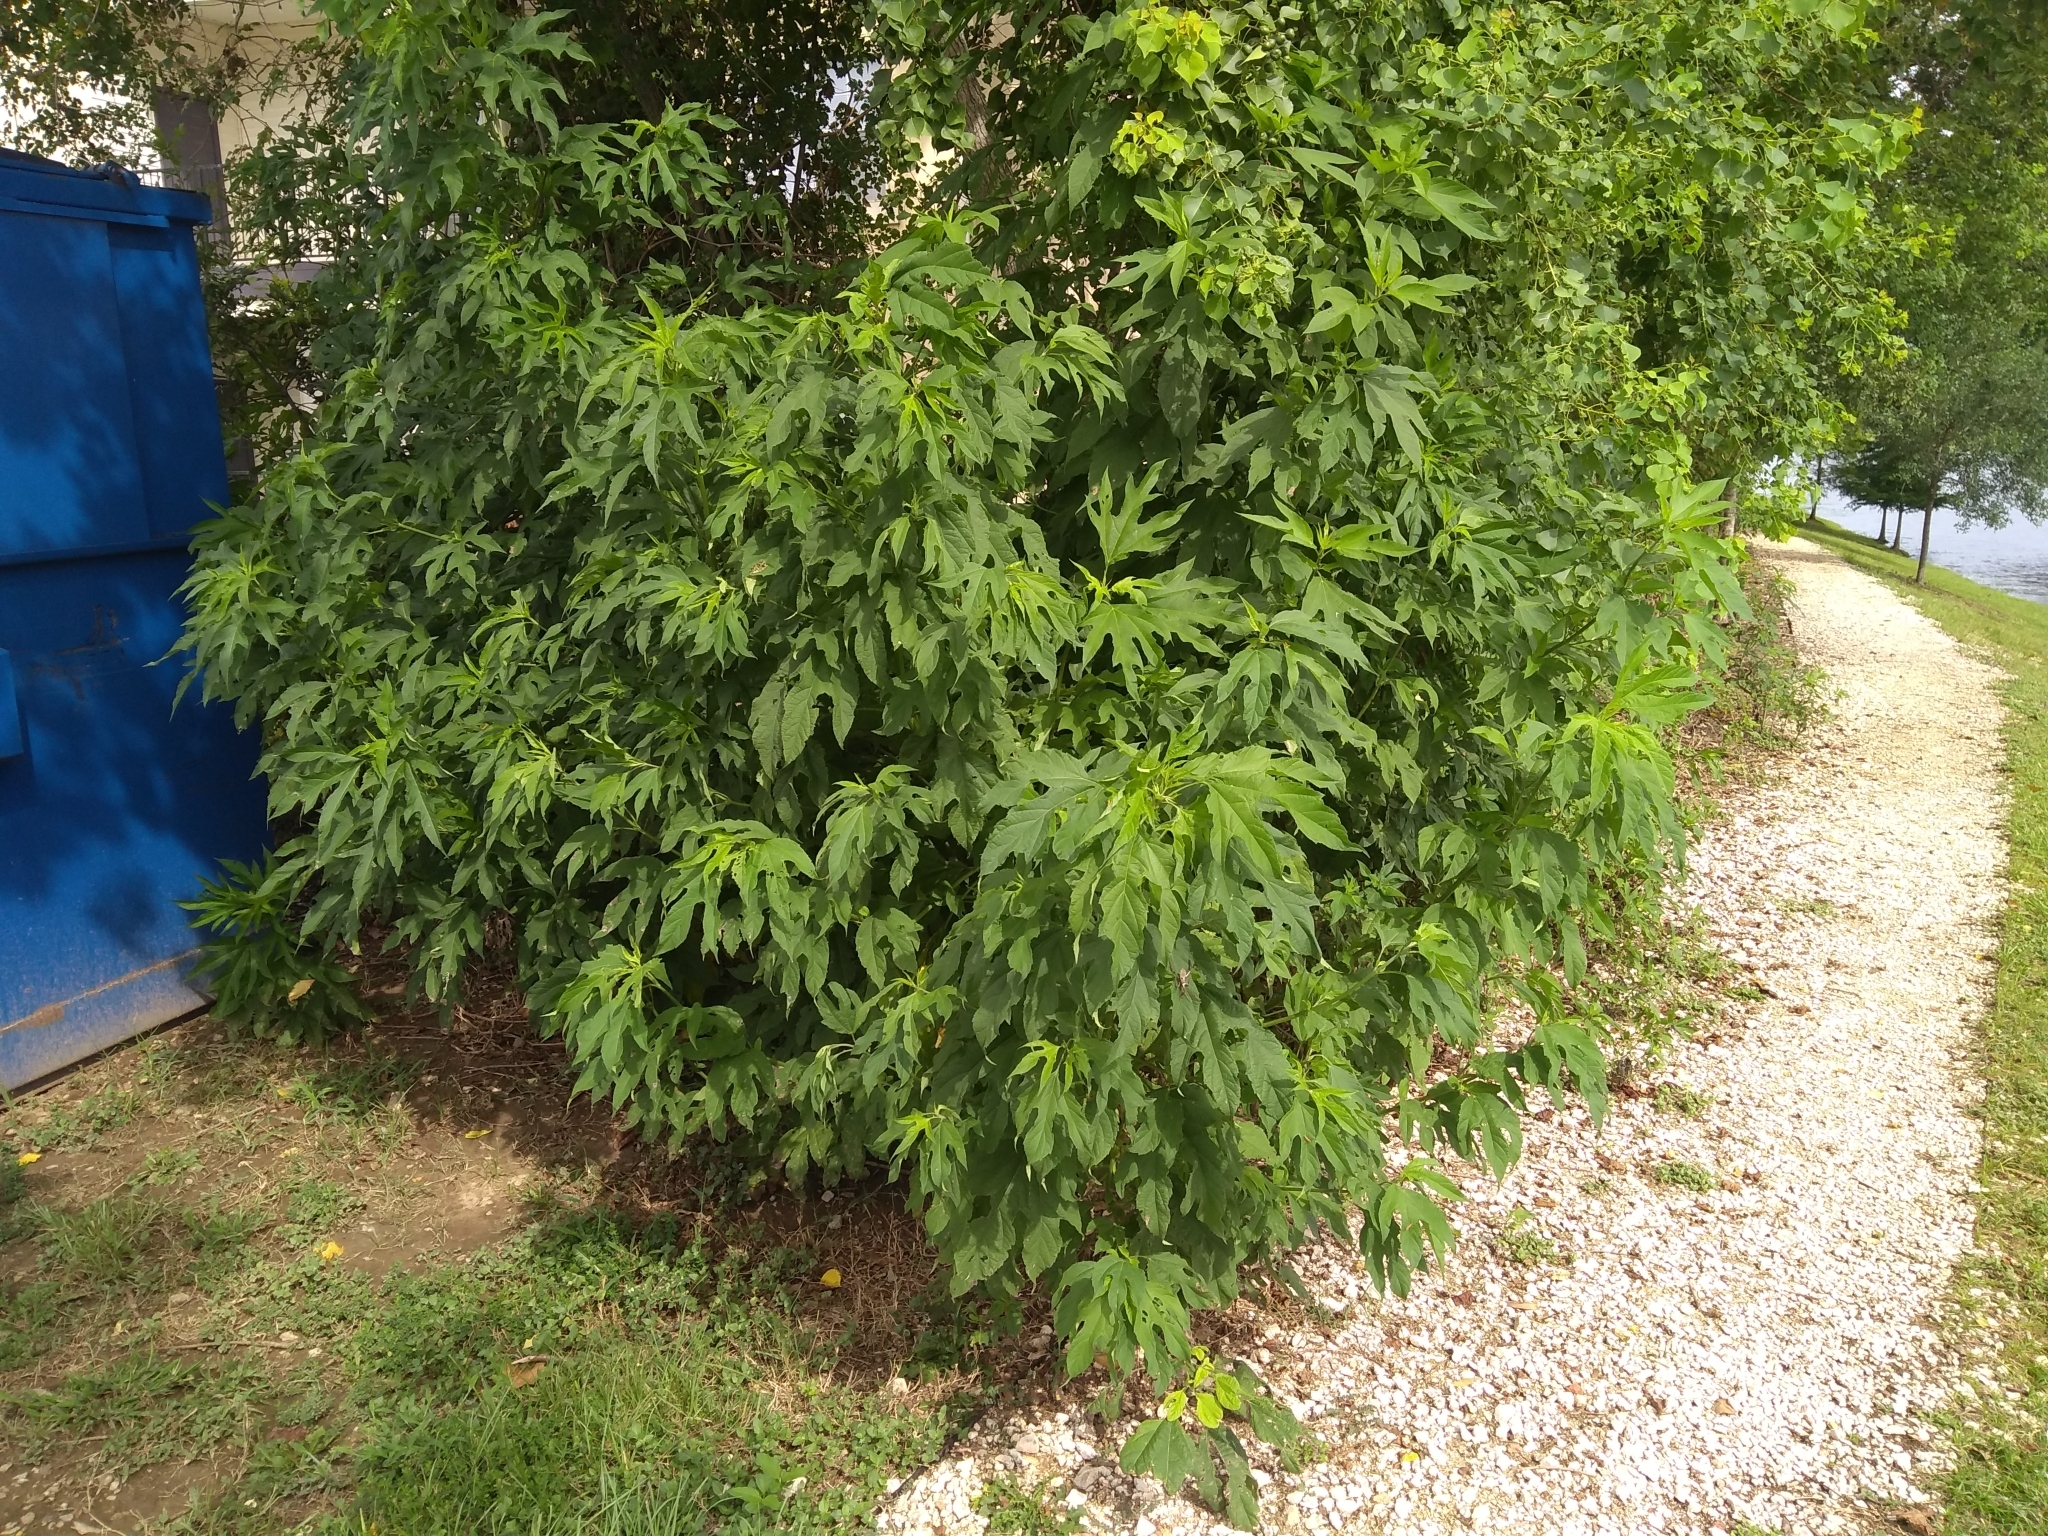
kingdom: Plantae
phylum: Tracheophyta
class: Magnoliopsida
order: Asterales
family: Asteraceae
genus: Ambrosia
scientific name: Ambrosia trifida
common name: Giant ragweed
